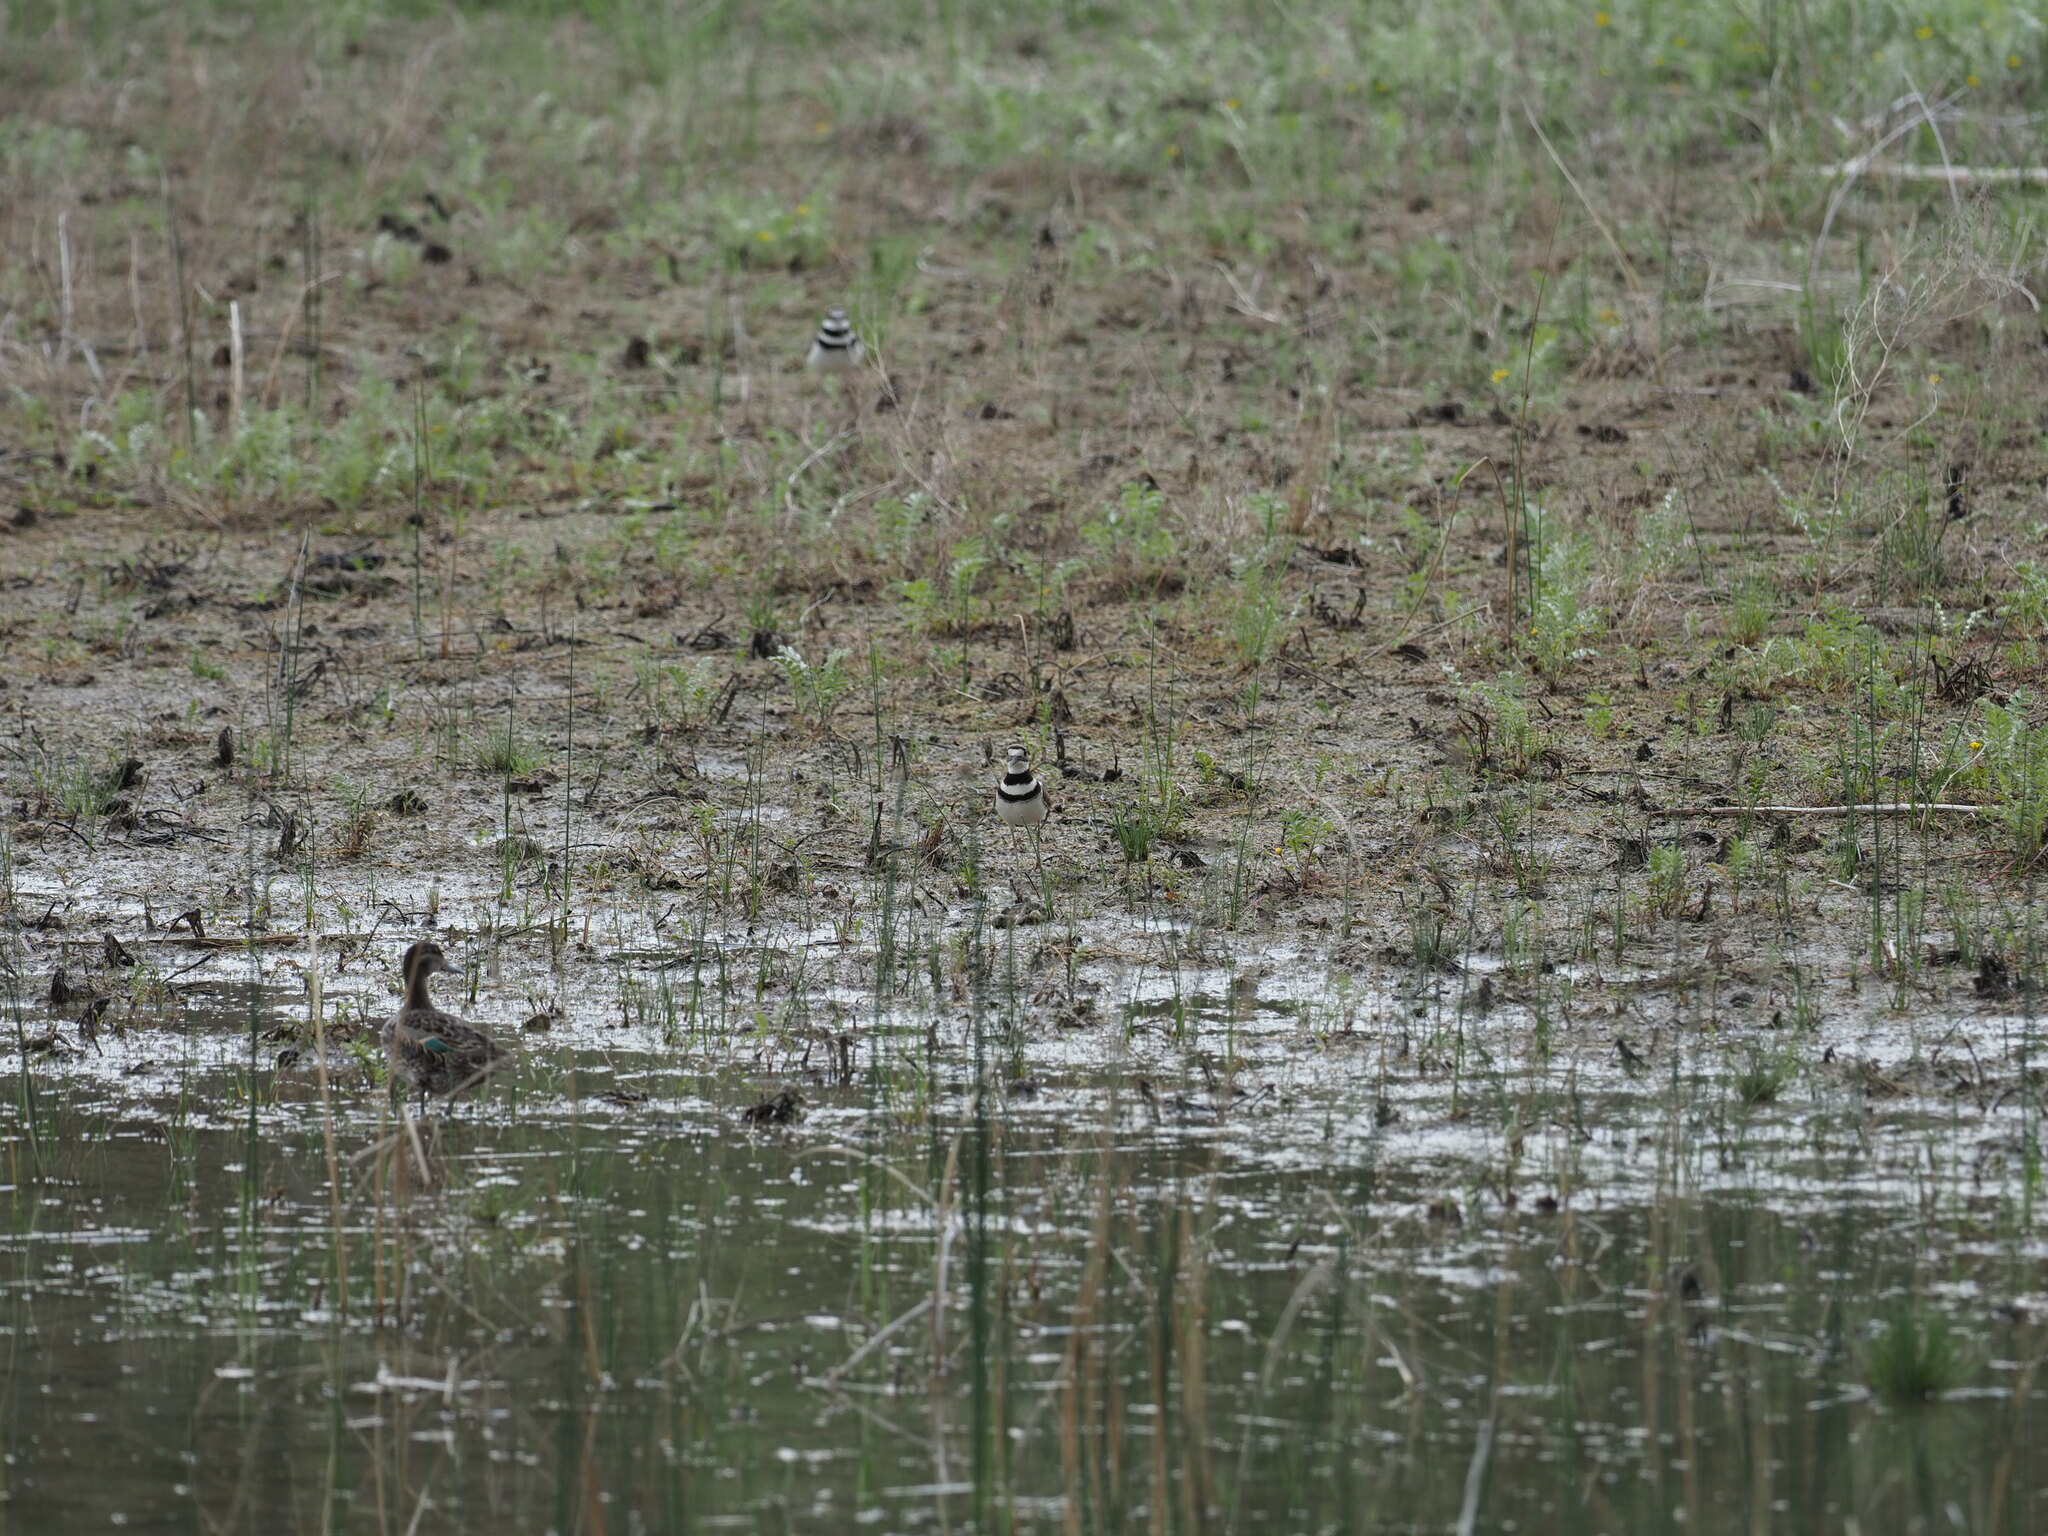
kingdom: Animalia
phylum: Chordata
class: Aves
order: Charadriiformes
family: Charadriidae
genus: Charadrius
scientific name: Charadrius vociferus
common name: Killdeer
